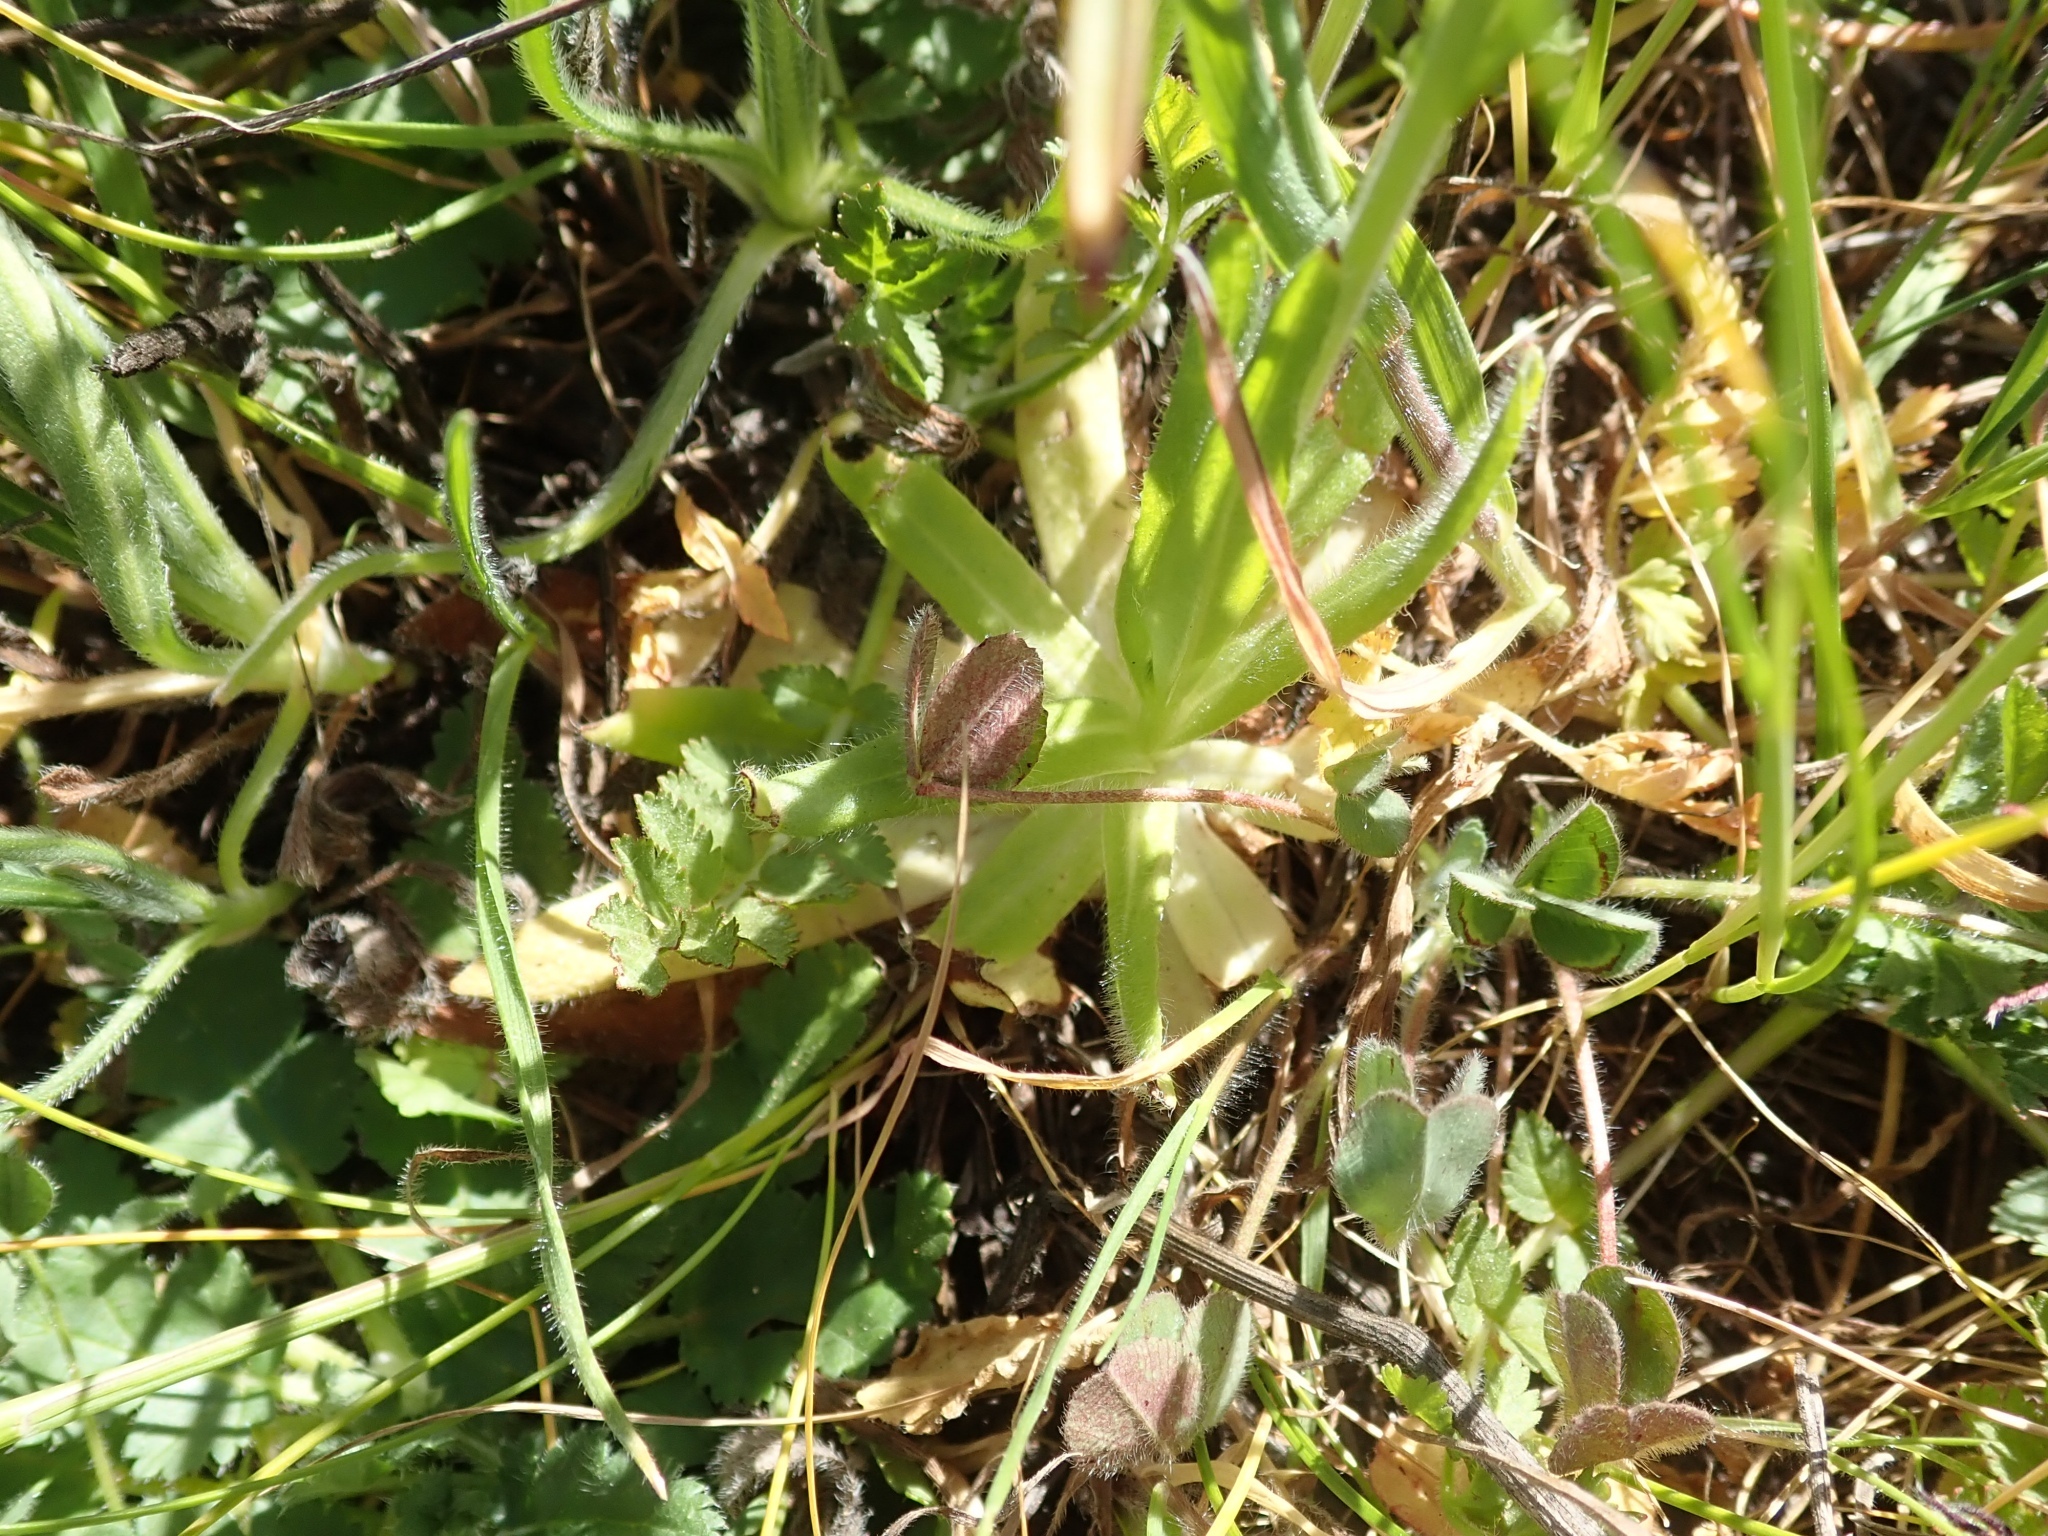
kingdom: Plantae
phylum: Tracheophyta
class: Magnoliopsida
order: Boraginales
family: Boraginaceae
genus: Plagiobothrys
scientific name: Plagiobothrys nothofulvus
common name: Popcorn-flower
